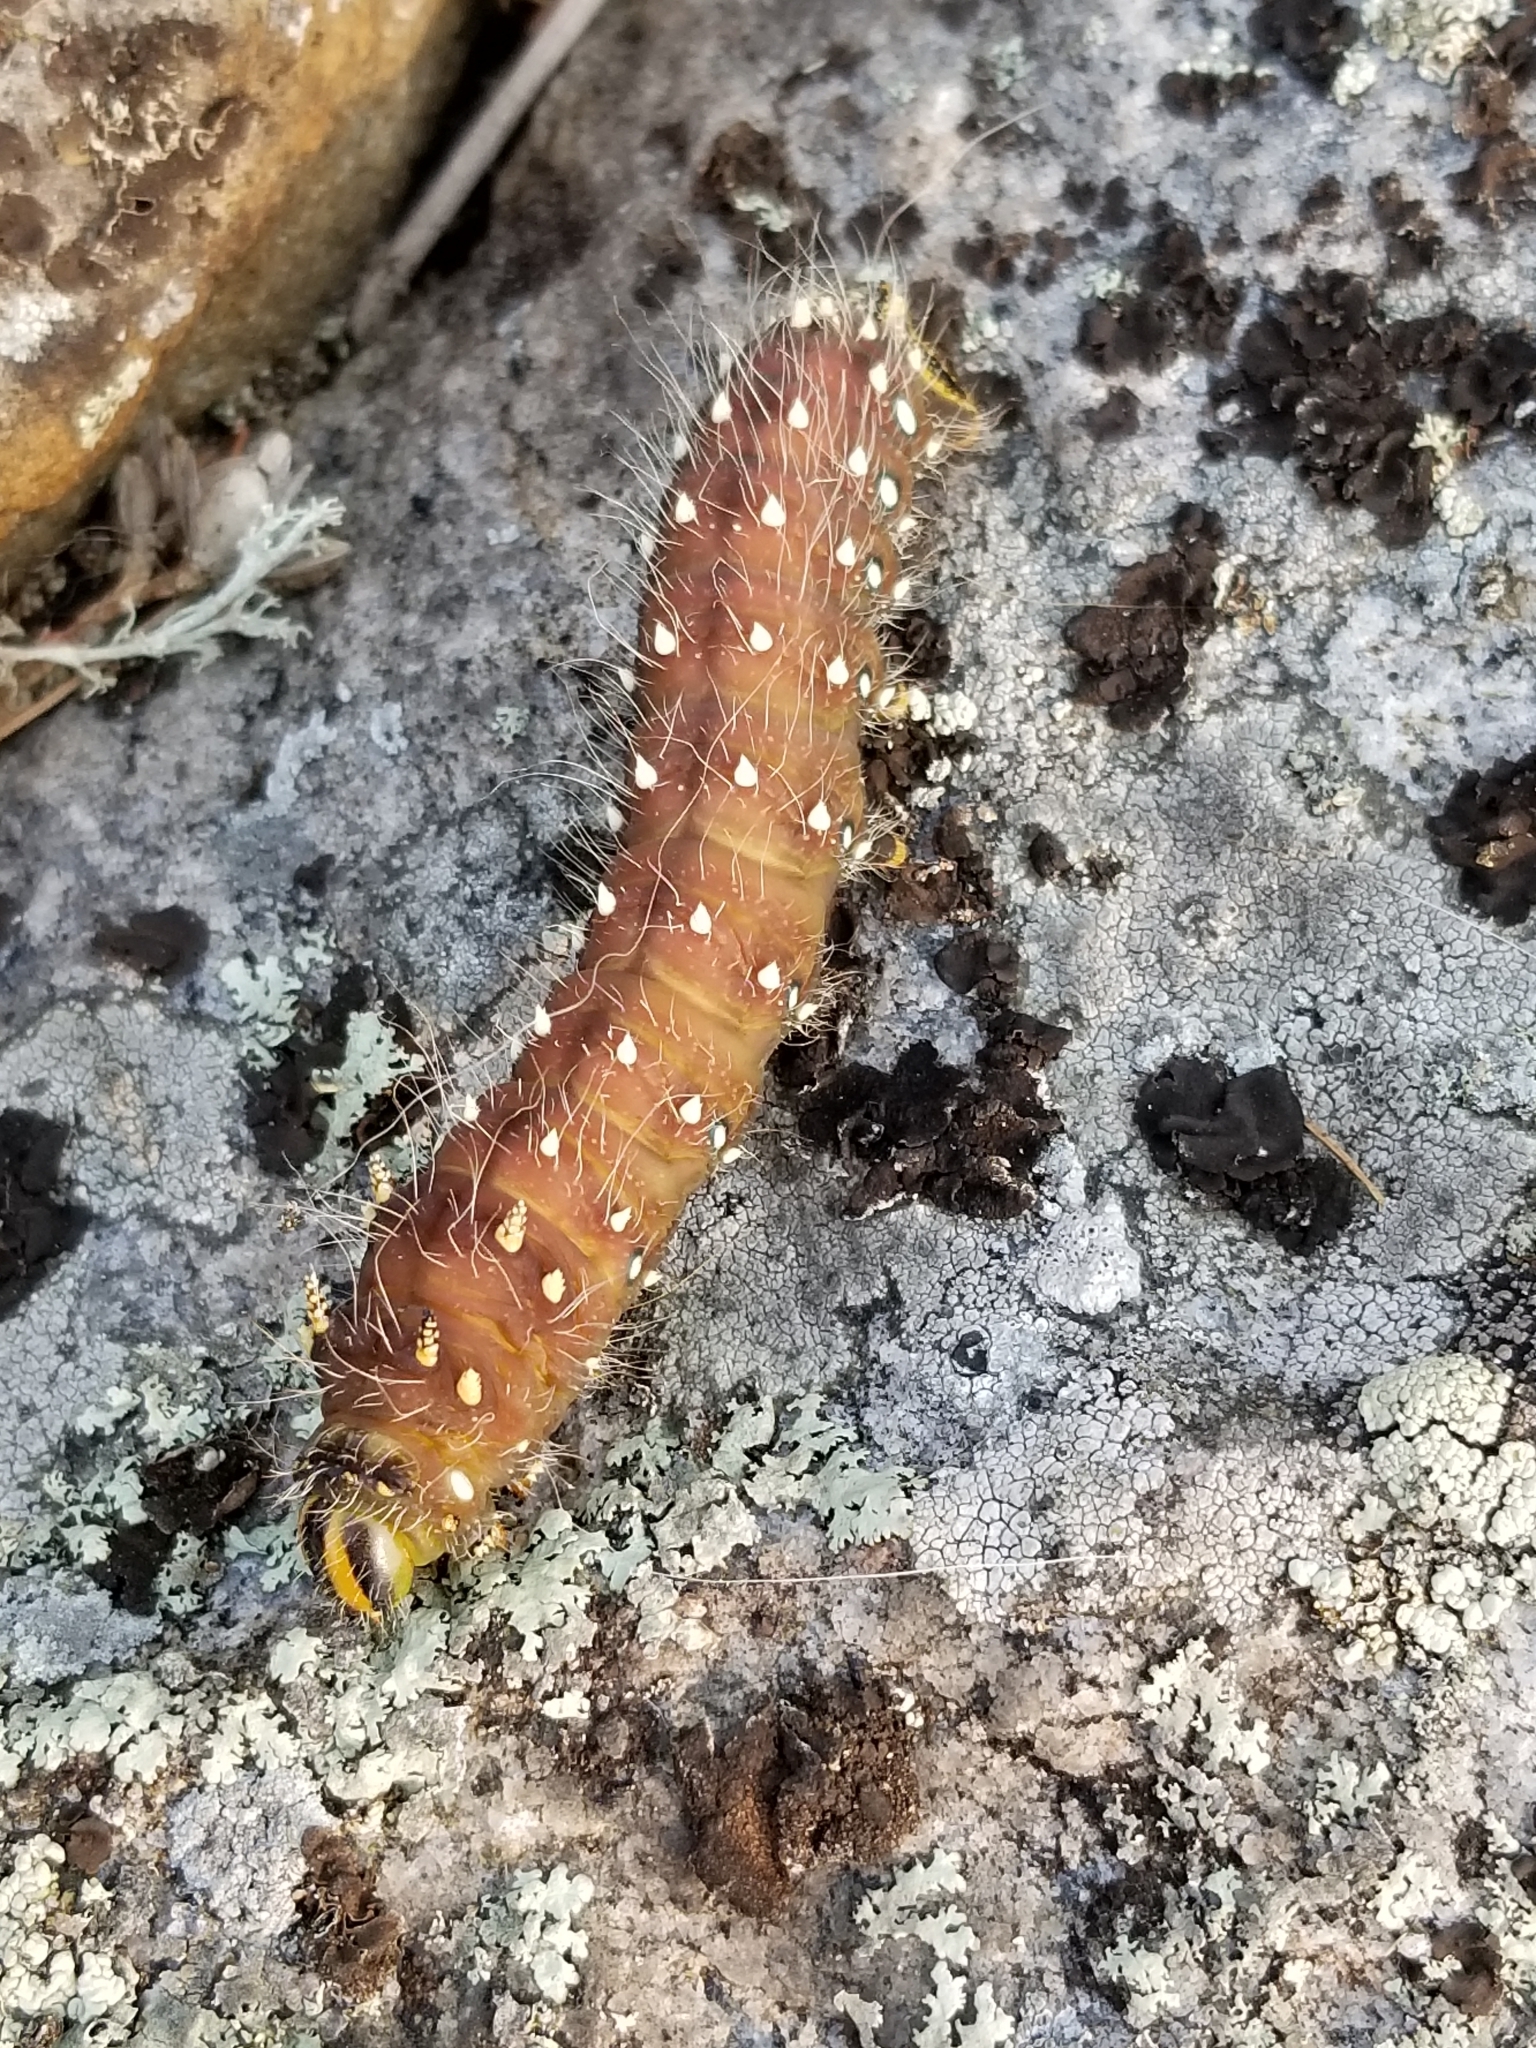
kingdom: Animalia
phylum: Arthropoda
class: Insecta
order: Lepidoptera
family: Saturniidae
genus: Eacles
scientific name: Eacles
